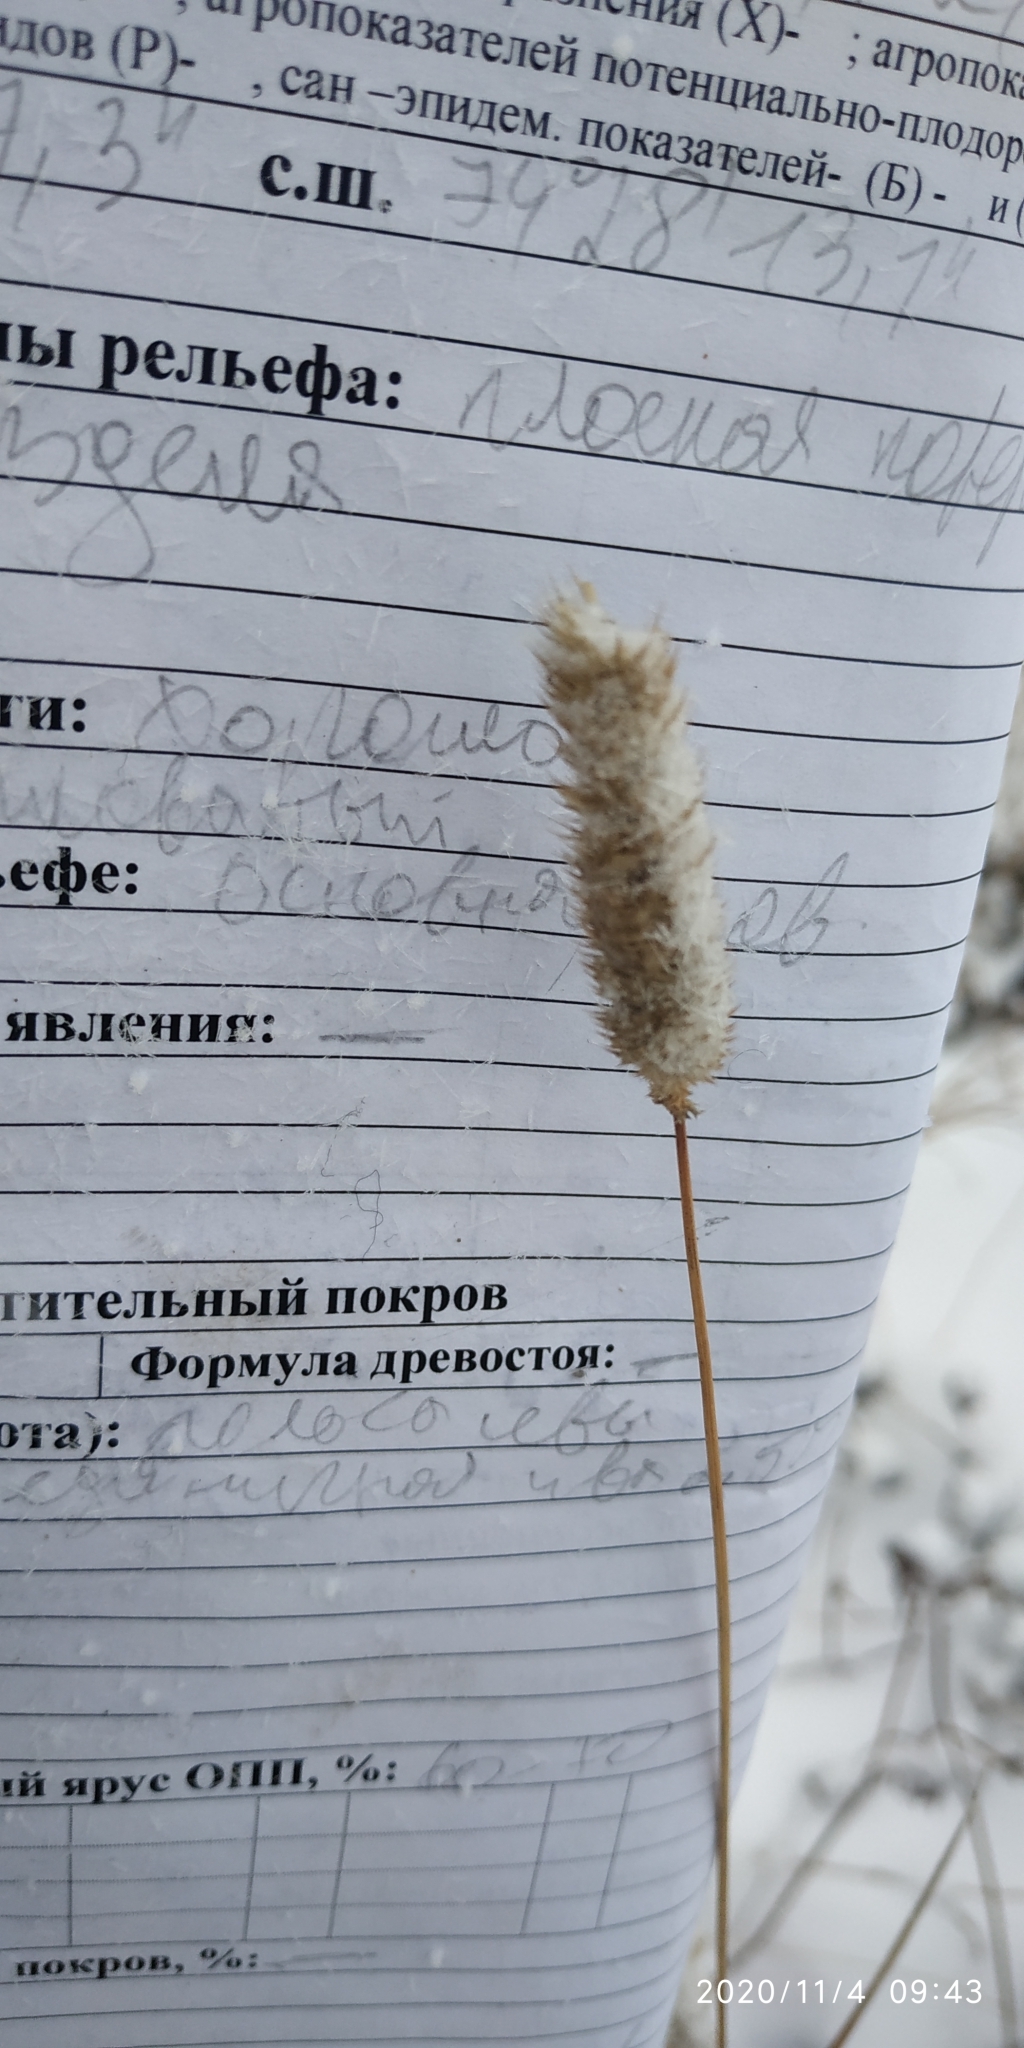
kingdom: Plantae
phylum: Tracheophyta
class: Liliopsida
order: Poales
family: Poaceae
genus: Phleum
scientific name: Phleum pratense
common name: Timothy grass
